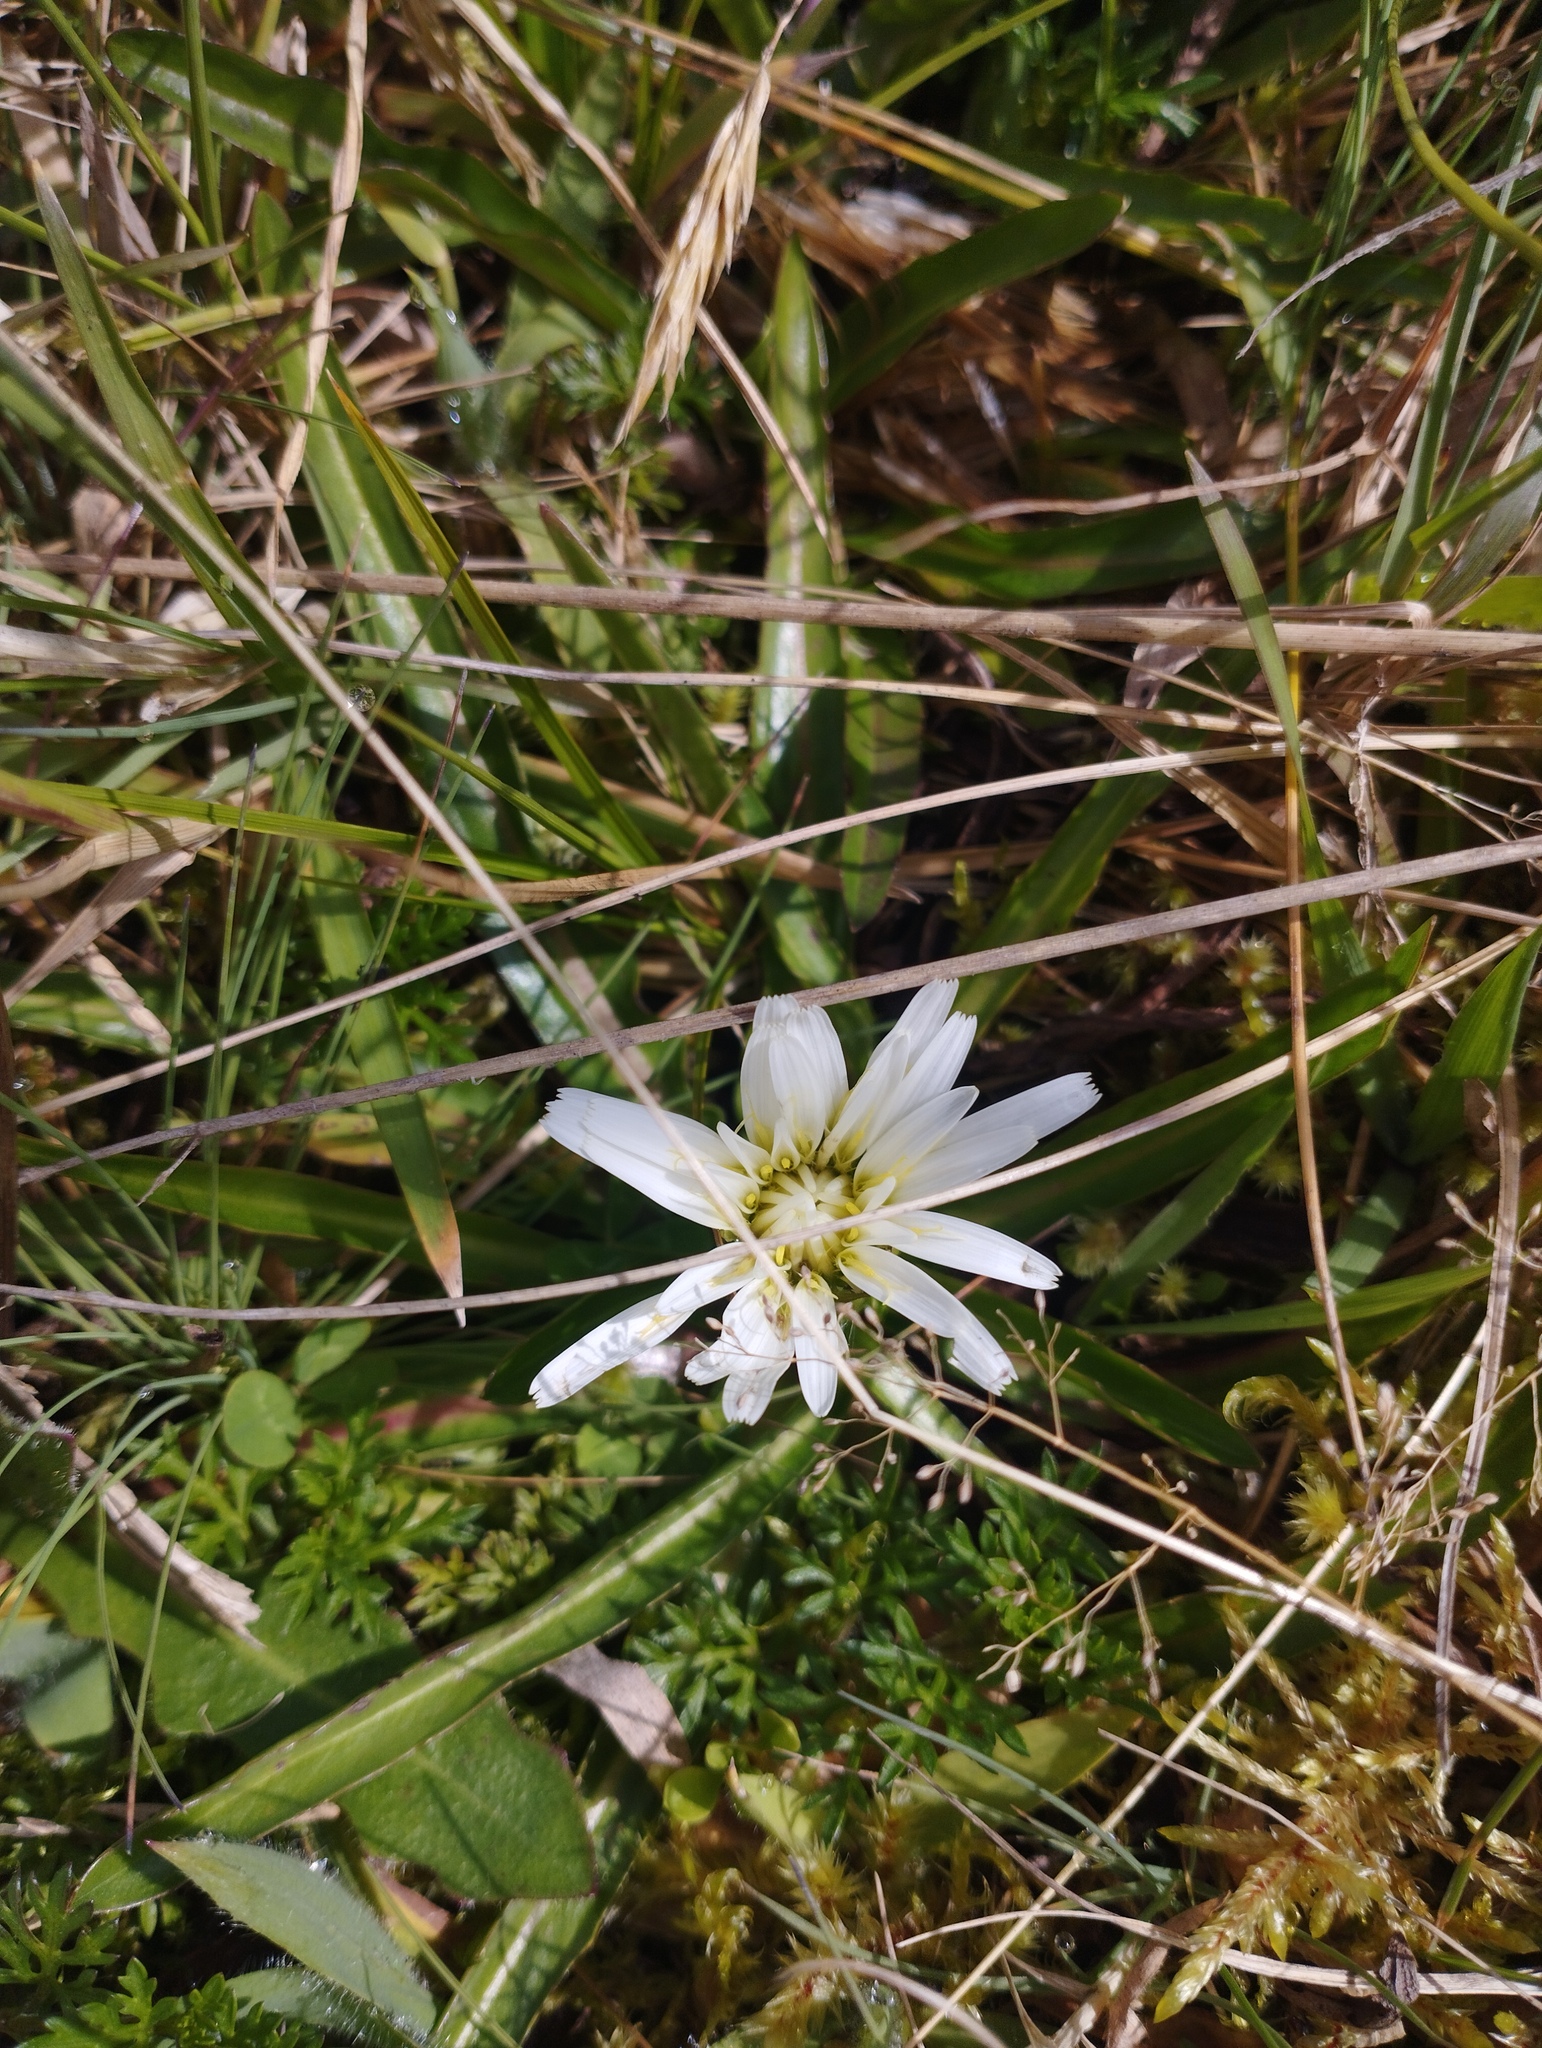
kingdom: Plantae
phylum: Tracheophyta
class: Magnoliopsida
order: Asterales
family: Asteraceae
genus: Hypochaeris
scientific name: Hypochaeris sessiliflora
